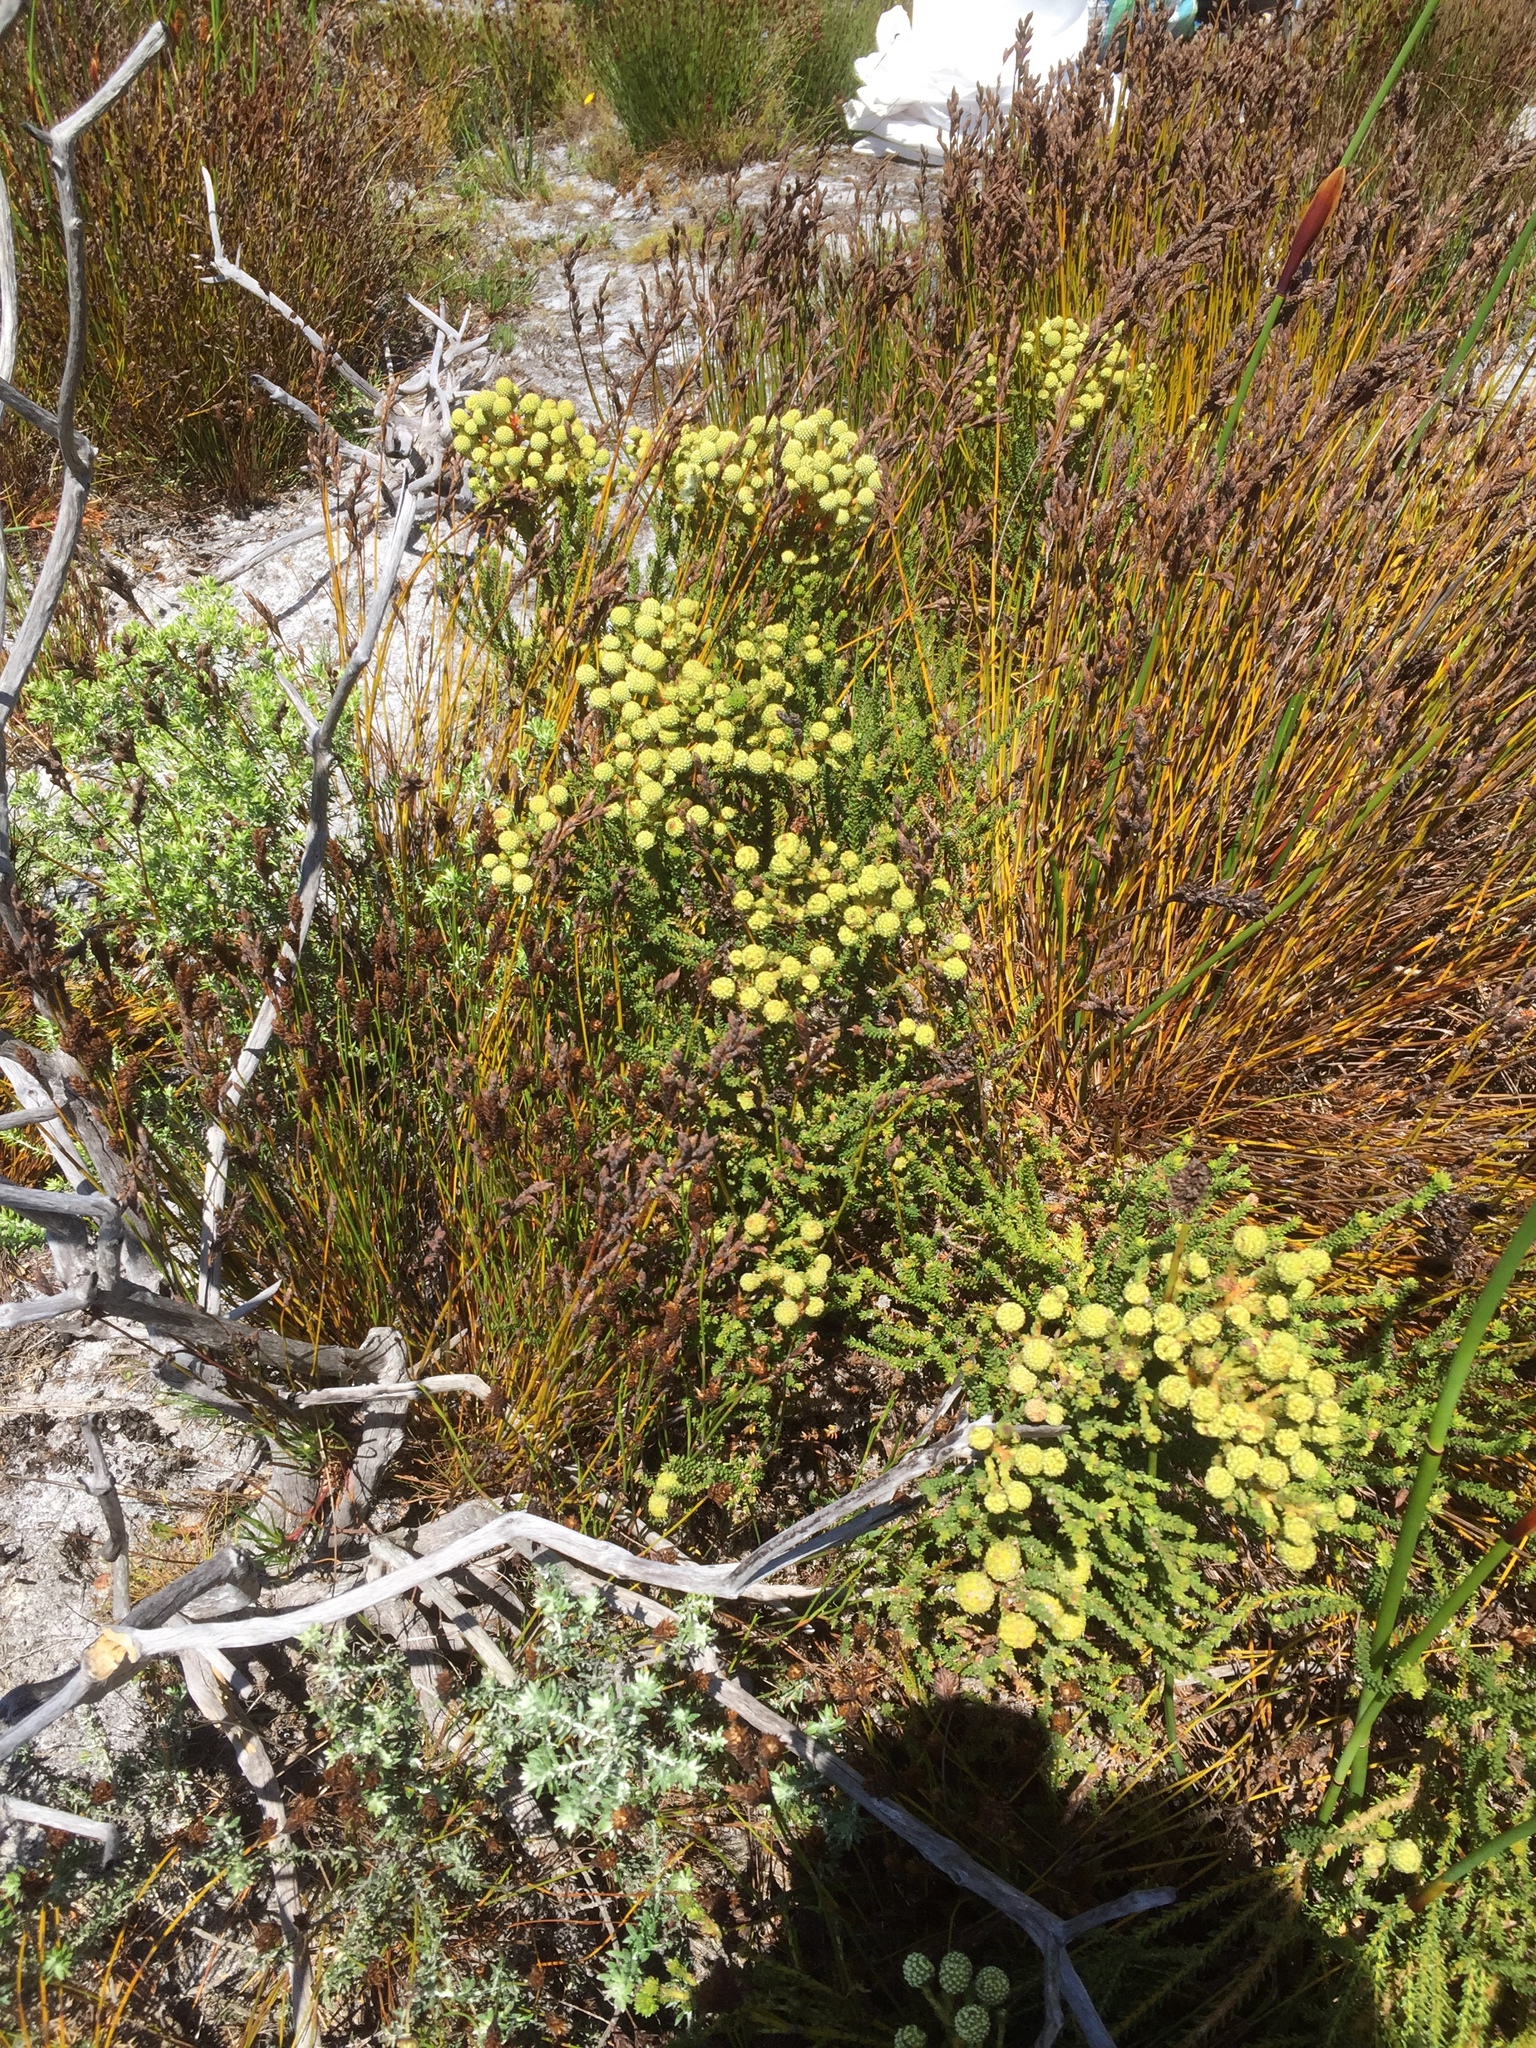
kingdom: Plantae
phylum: Tracheophyta
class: Magnoliopsida
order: Bruniales
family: Bruniaceae
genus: Berzelia
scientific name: Berzelia abrotanoides
